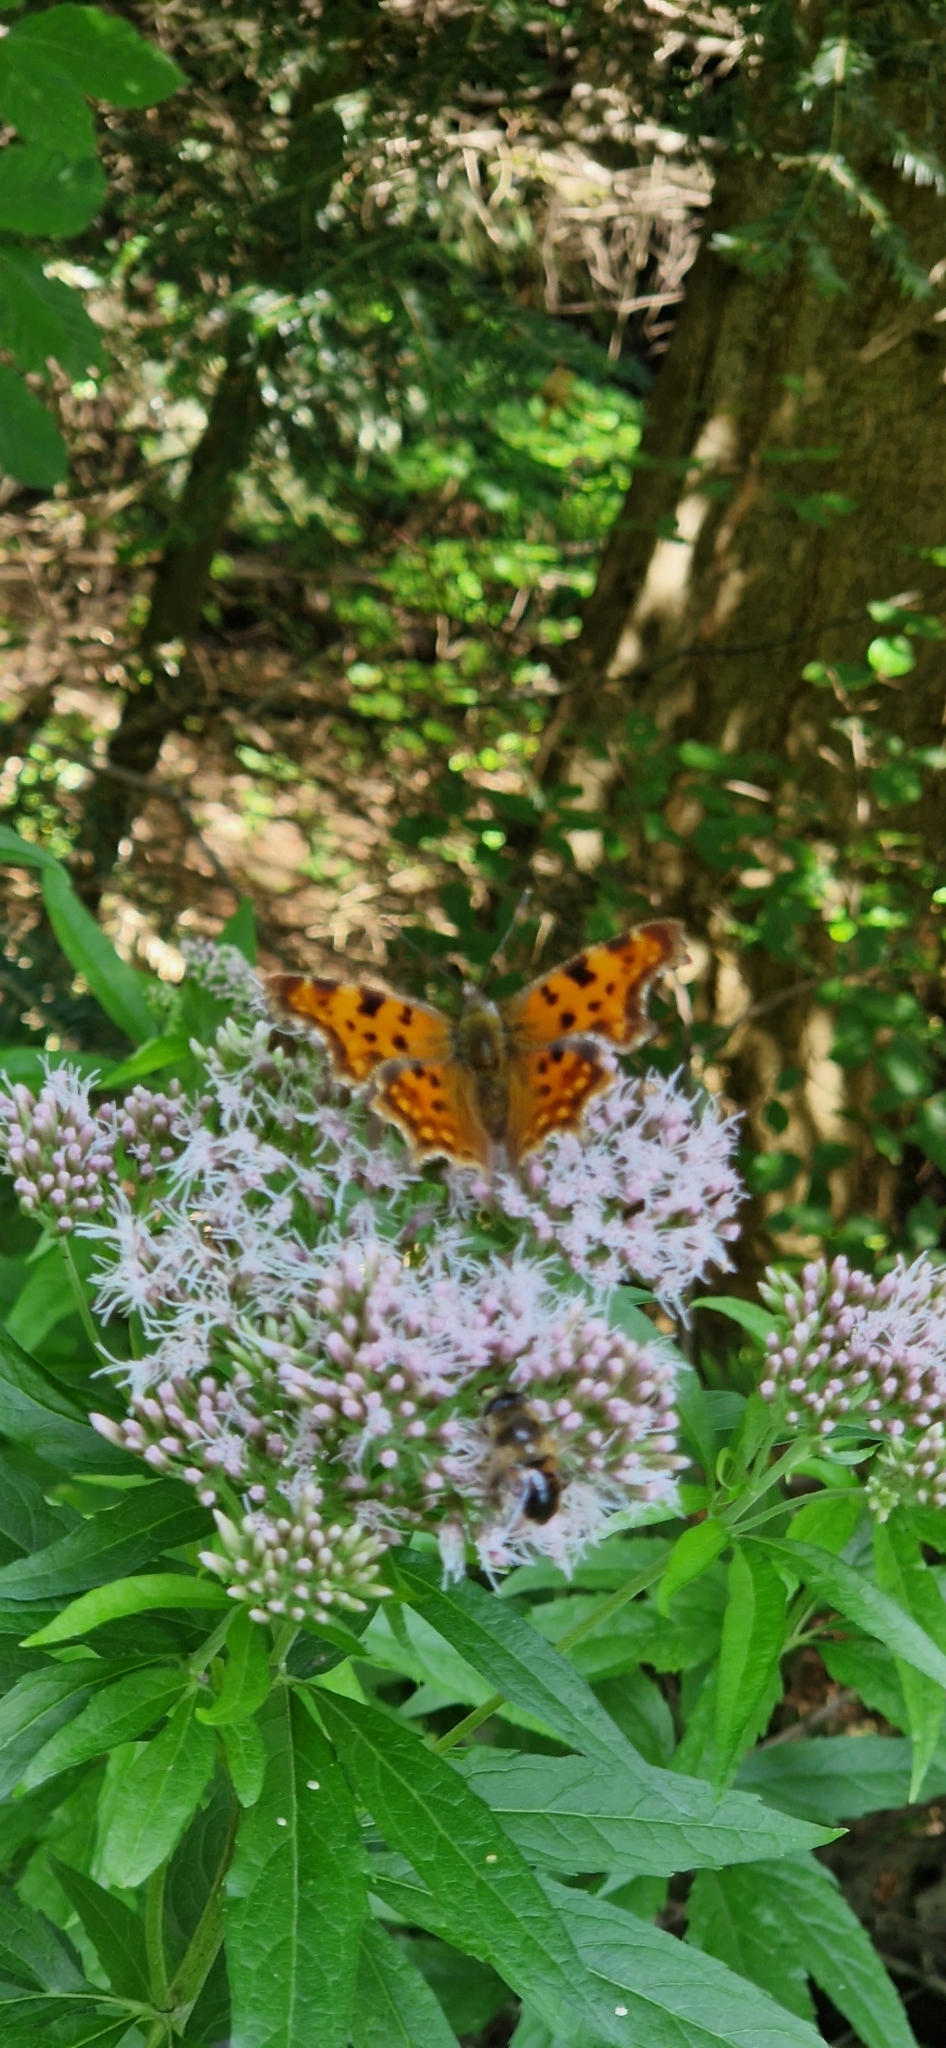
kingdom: Animalia
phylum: Arthropoda
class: Insecta
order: Lepidoptera
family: Nymphalidae
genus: Polygonia
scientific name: Polygonia c-album
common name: Comma
